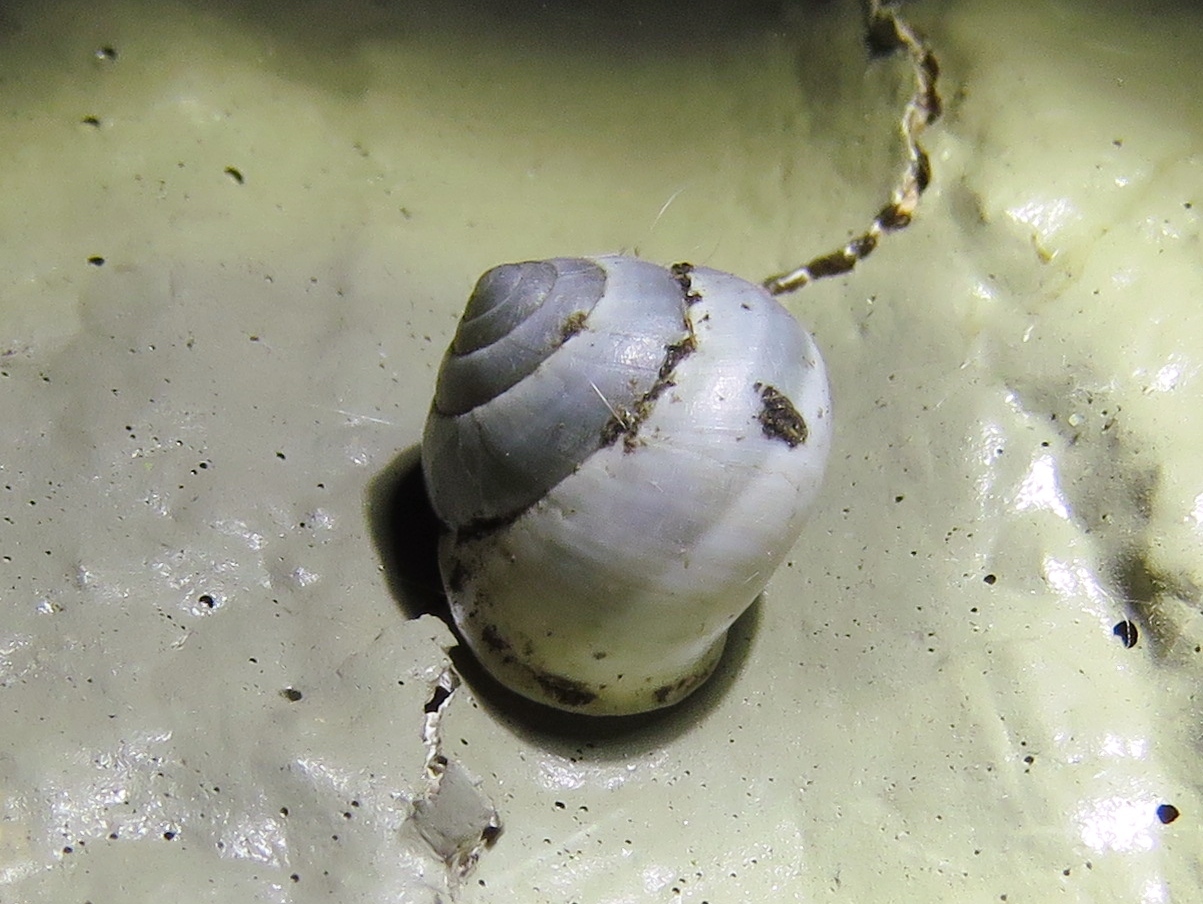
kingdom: Animalia
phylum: Mollusca
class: Gastropoda
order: Cycloneritida
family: Helicinidae
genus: Helicina
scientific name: Helicina orbiculata
